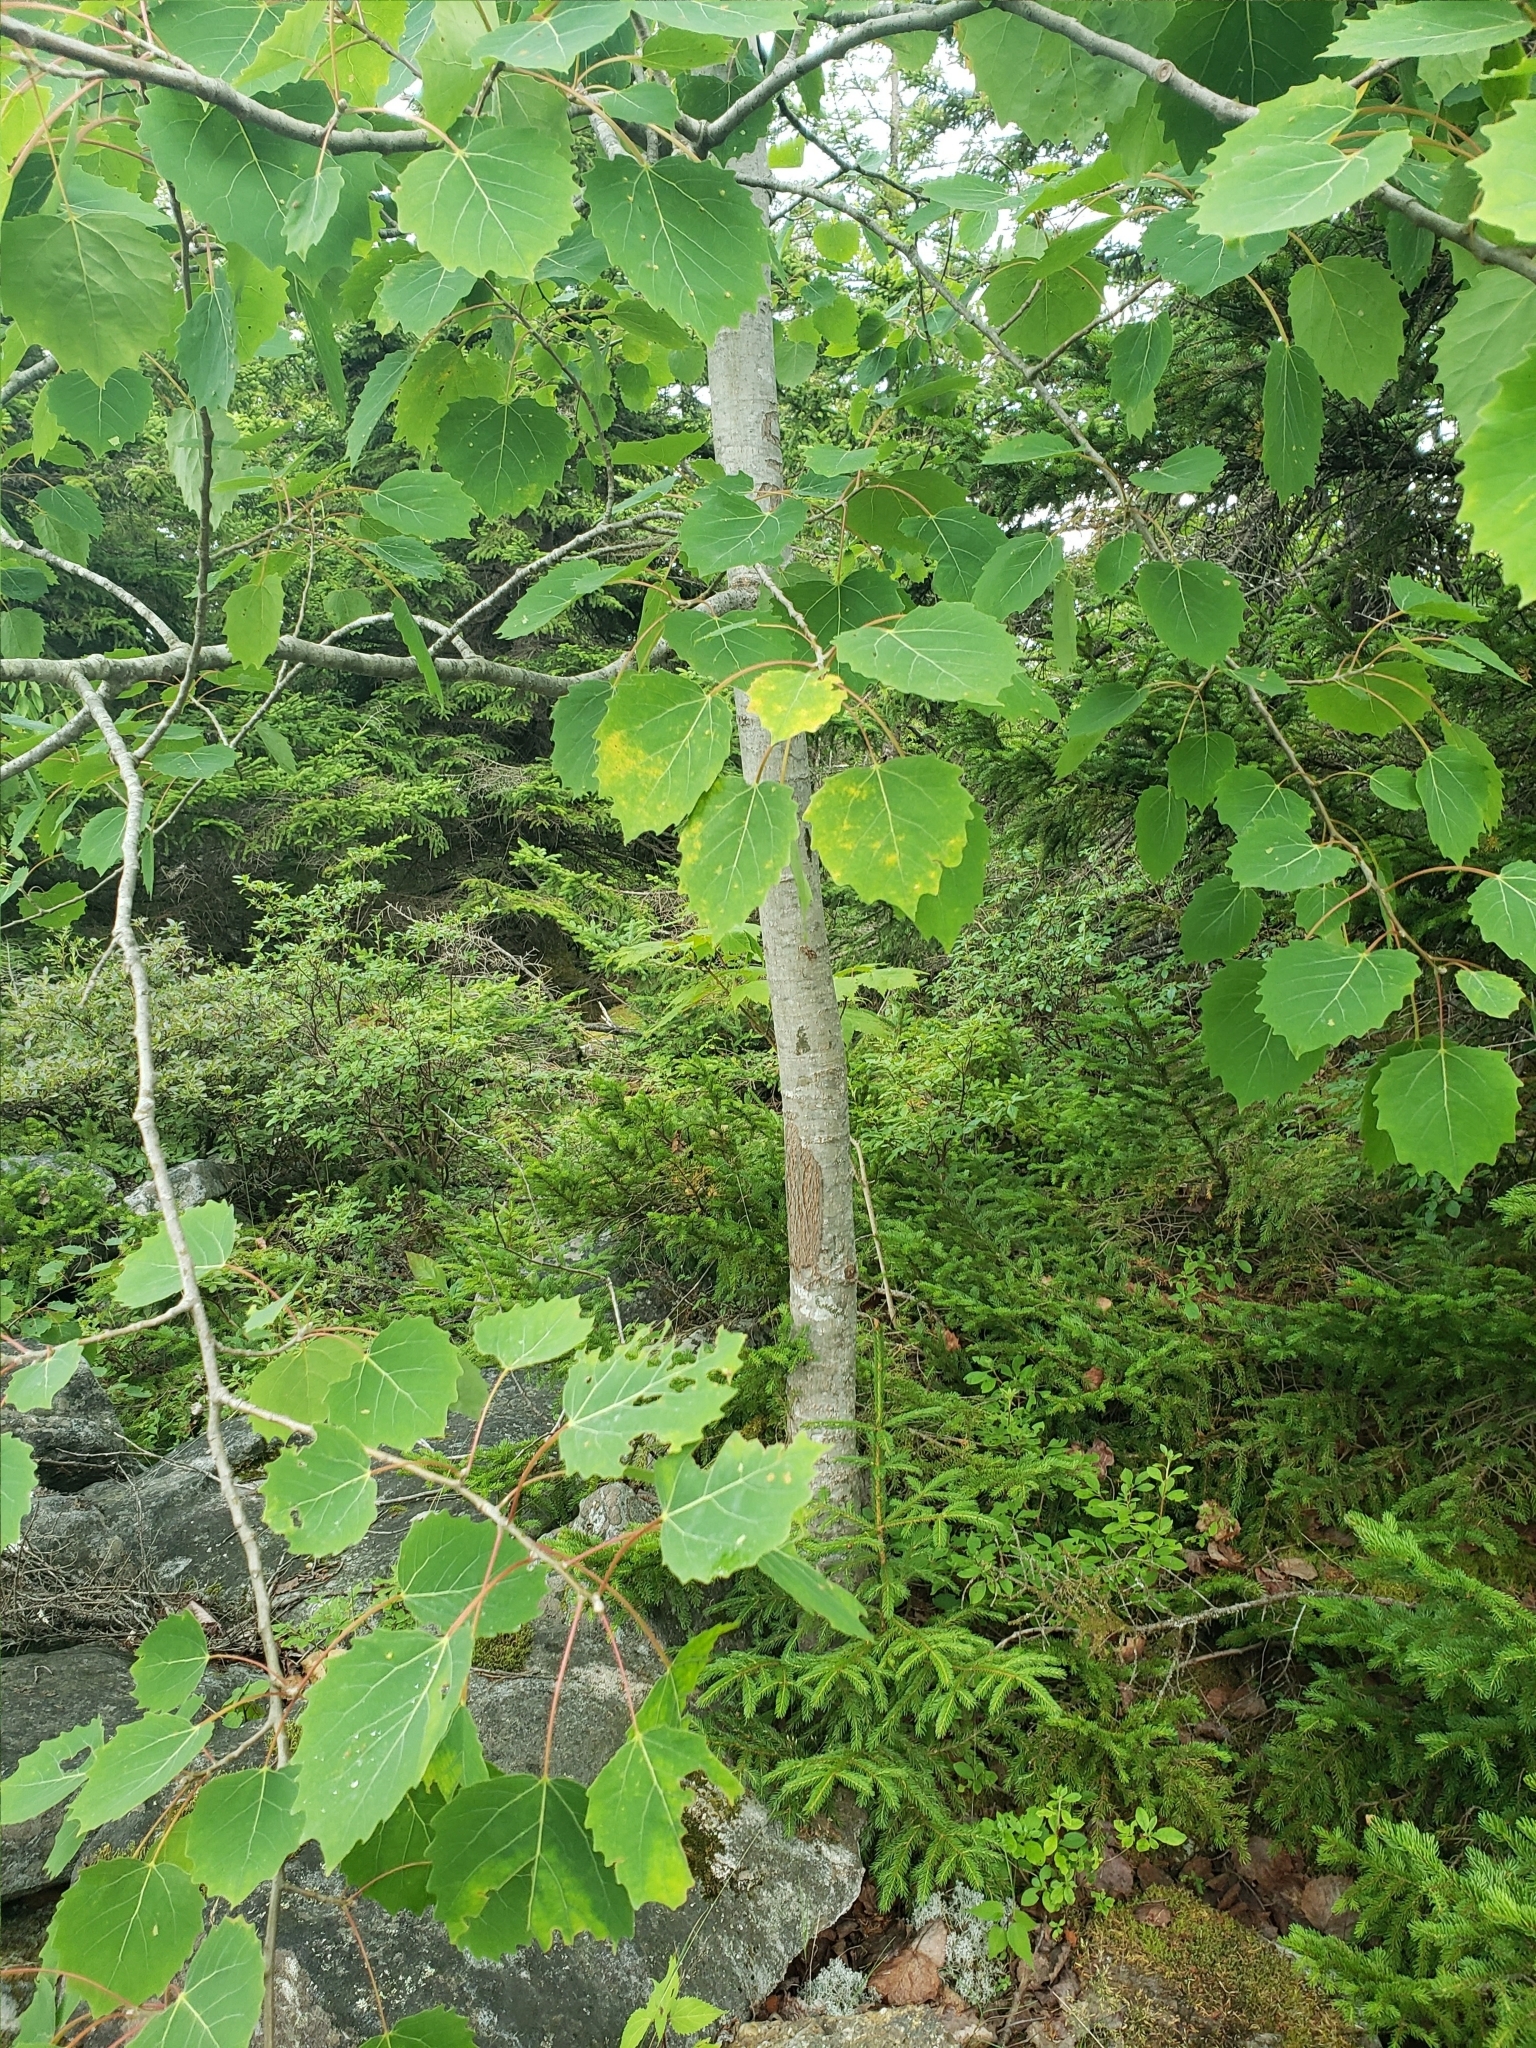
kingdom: Plantae
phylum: Tracheophyta
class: Magnoliopsida
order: Malpighiales
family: Salicaceae
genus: Populus
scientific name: Populus grandidentata
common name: Bigtooth aspen
